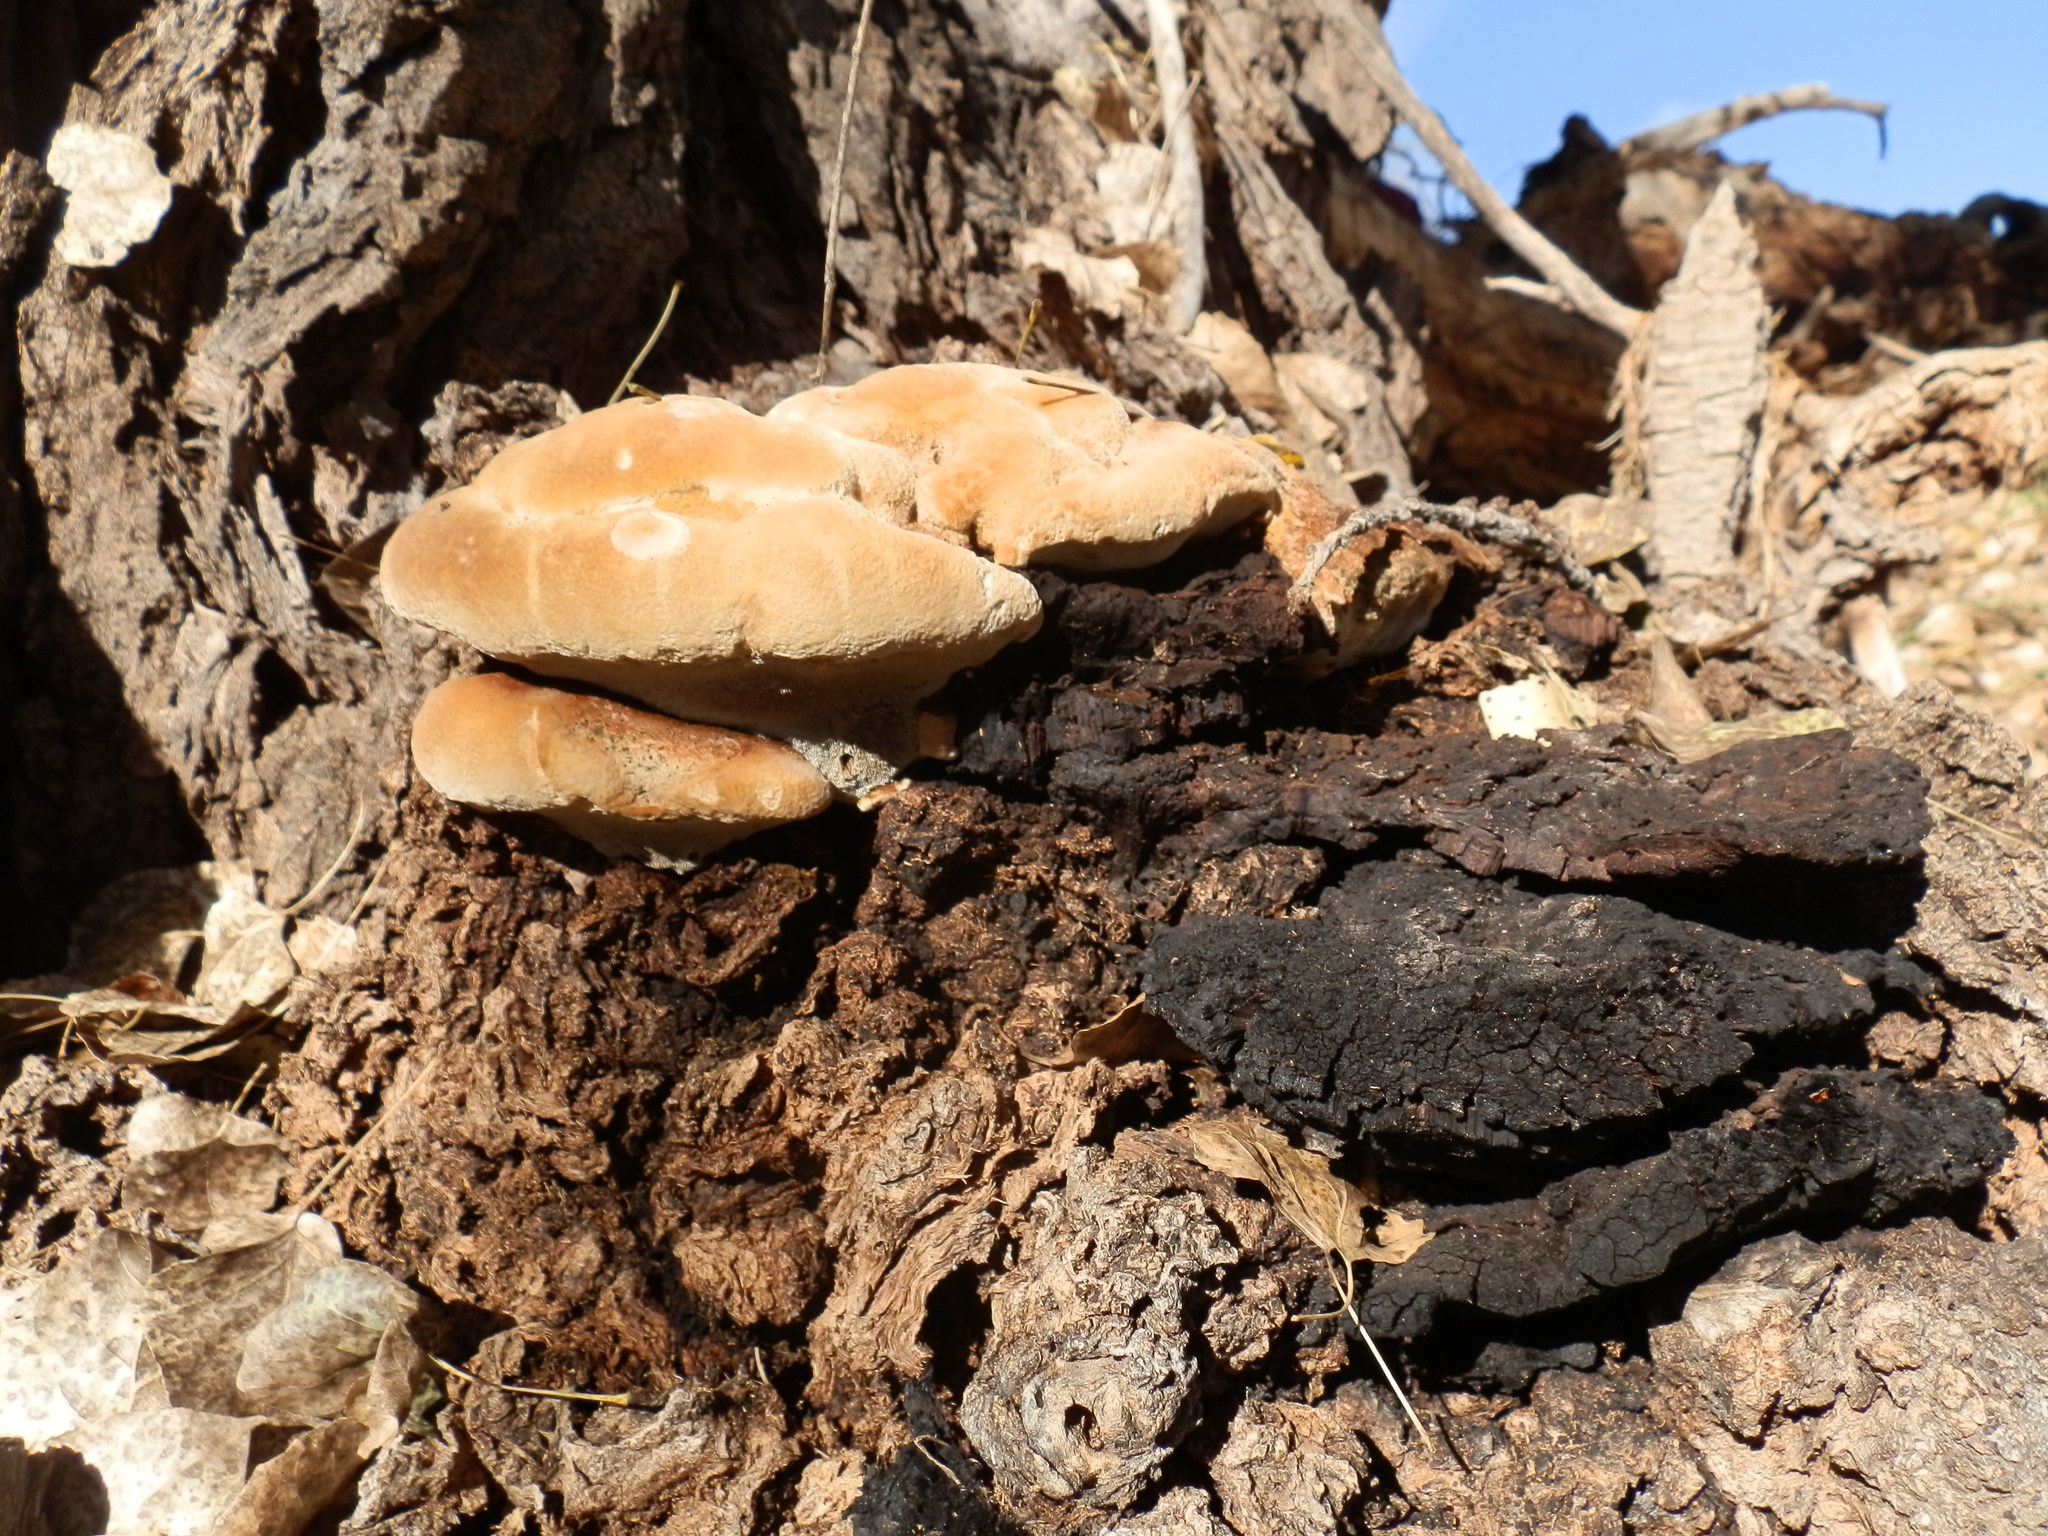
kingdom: Fungi
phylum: Basidiomycota
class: Agaricomycetes
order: Hymenochaetales
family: Hymenochaetaceae
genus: Inonotus
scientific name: Inonotus munzii
